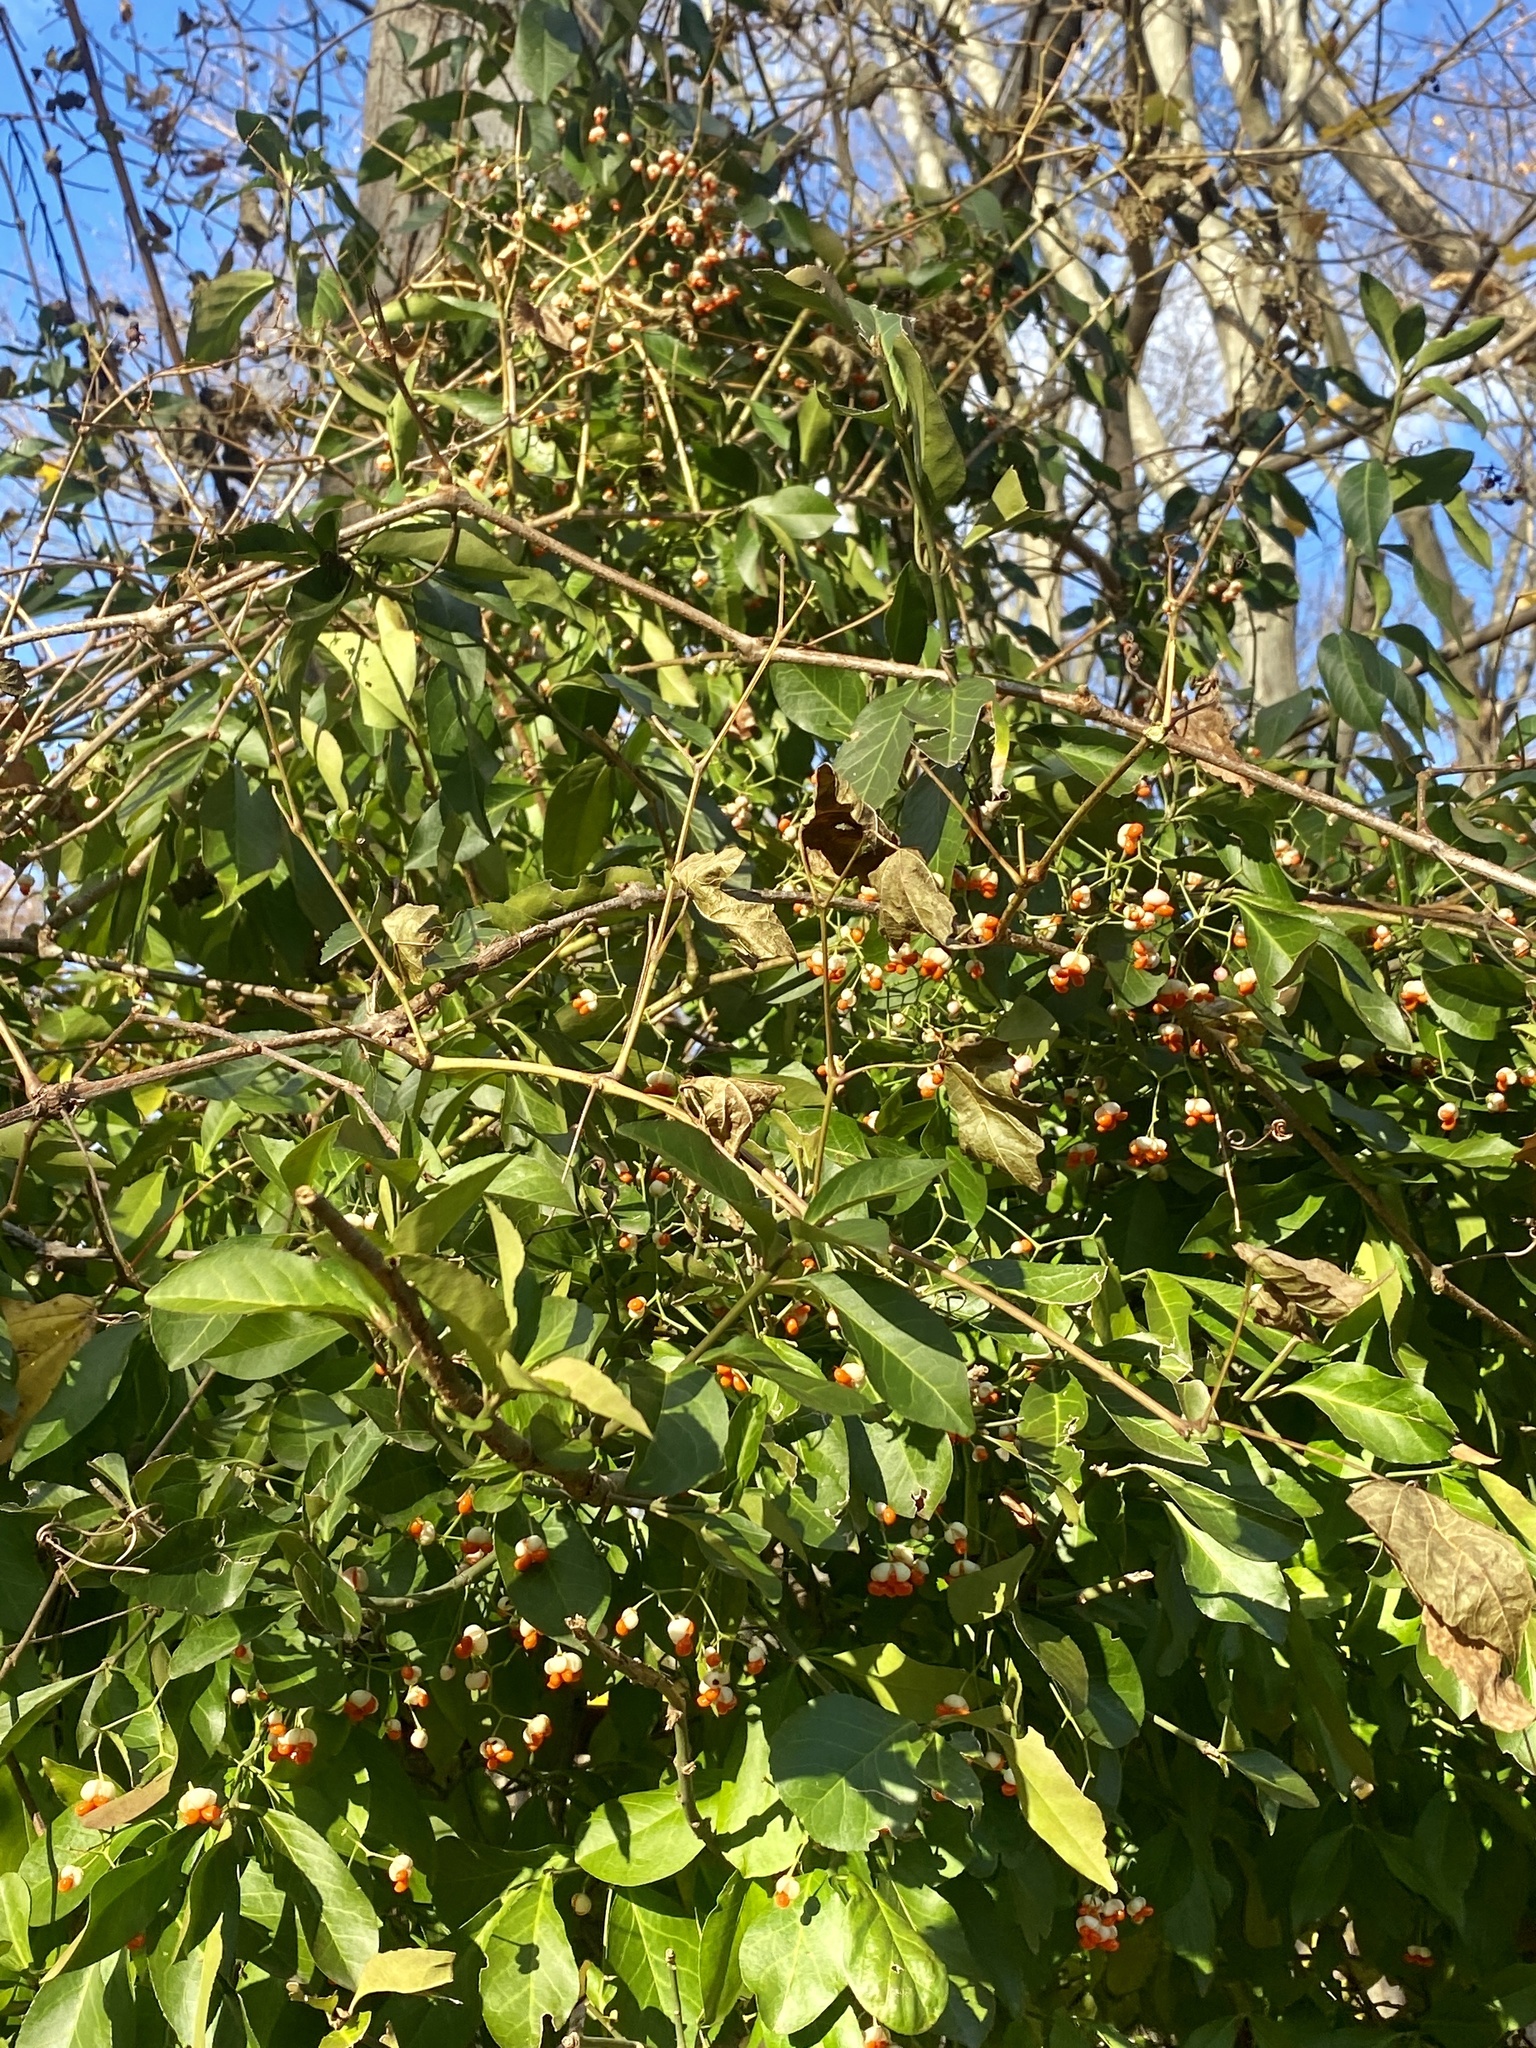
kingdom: Plantae
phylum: Tracheophyta
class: Magnoliopsida
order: Celastrales
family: Celastraceae
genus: Euonymus
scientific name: Euonymus japonicus
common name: Japanese spindletree
